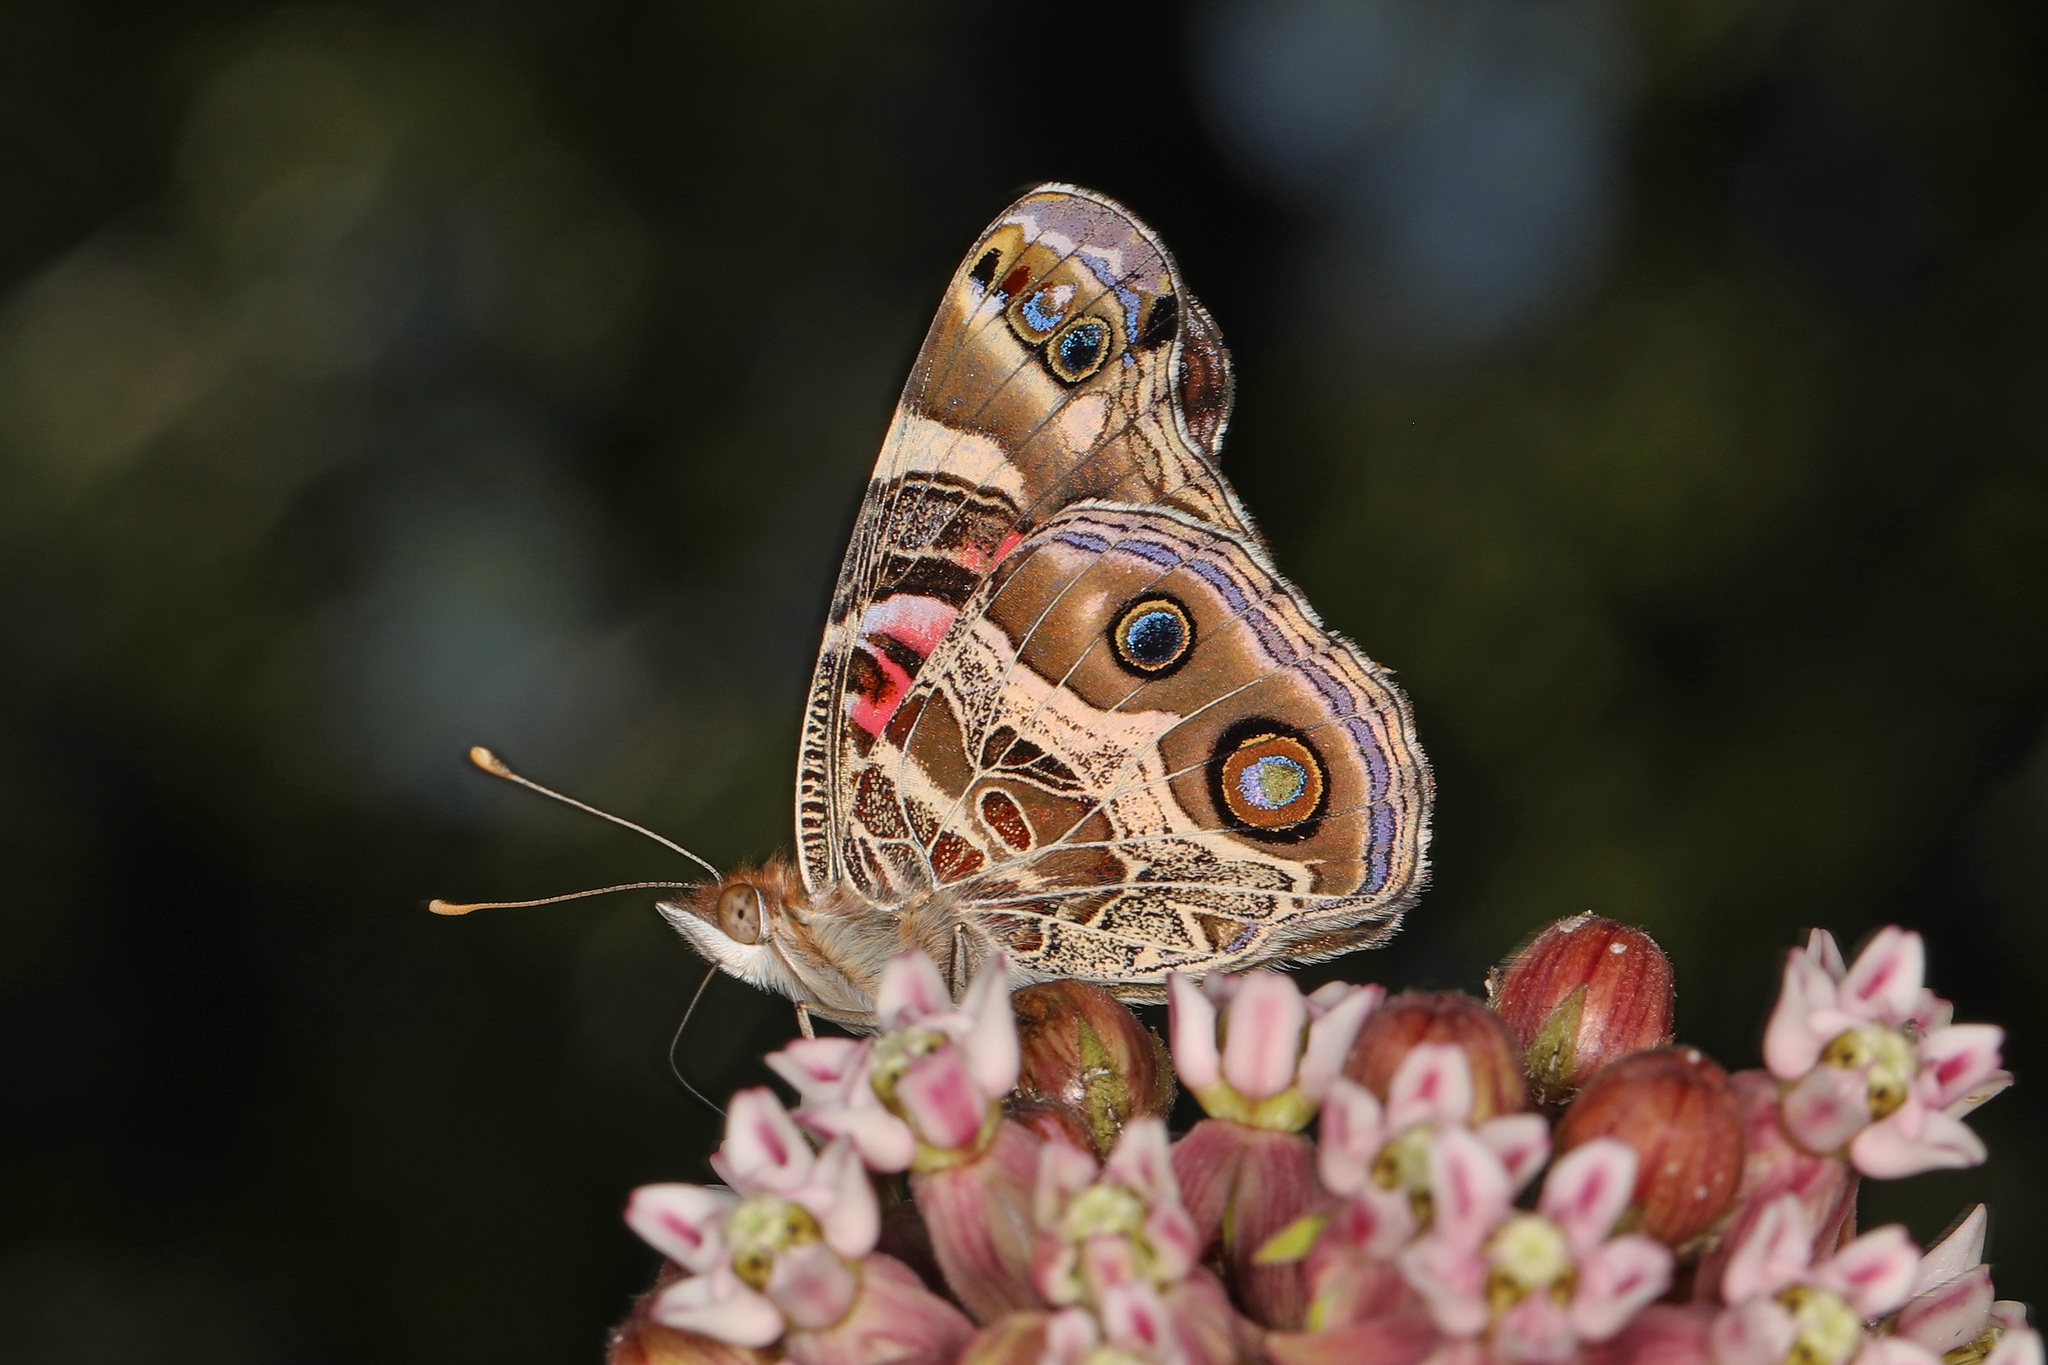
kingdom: Animalia
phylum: Arthropoda
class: Insecta
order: Lepidoptera
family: Nymphalidae
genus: Vanessa
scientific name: Vanessa virginiensis
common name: American lady
